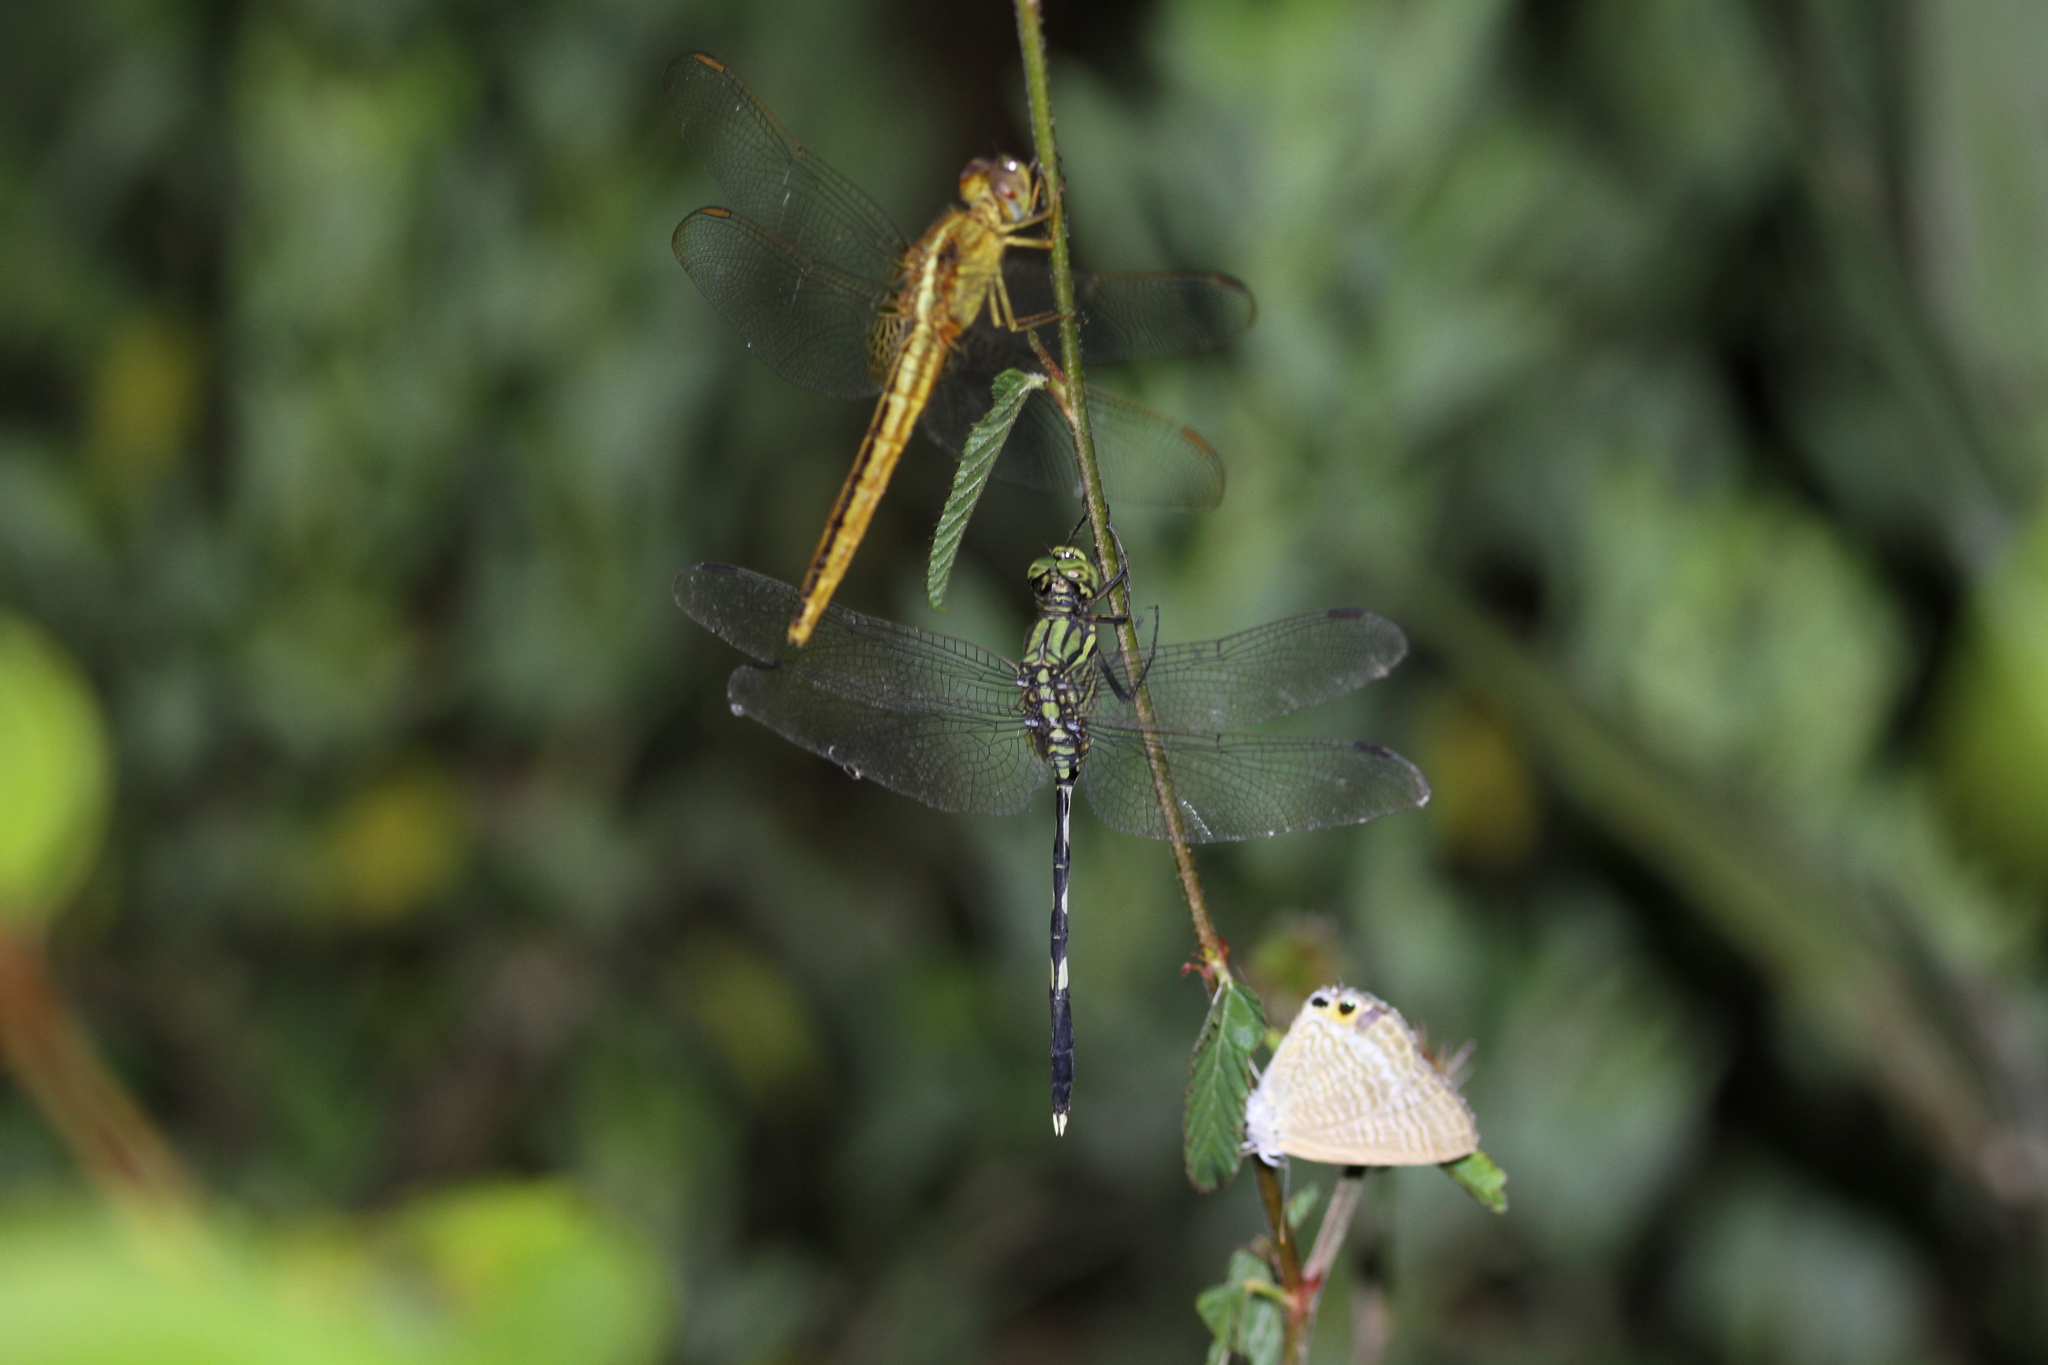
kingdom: Animalia
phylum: Arthropoda
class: Insecta
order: Odonata
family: Libellulidae
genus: Orthetrum
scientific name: Orthetrum sabina
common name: Slender skimmer
